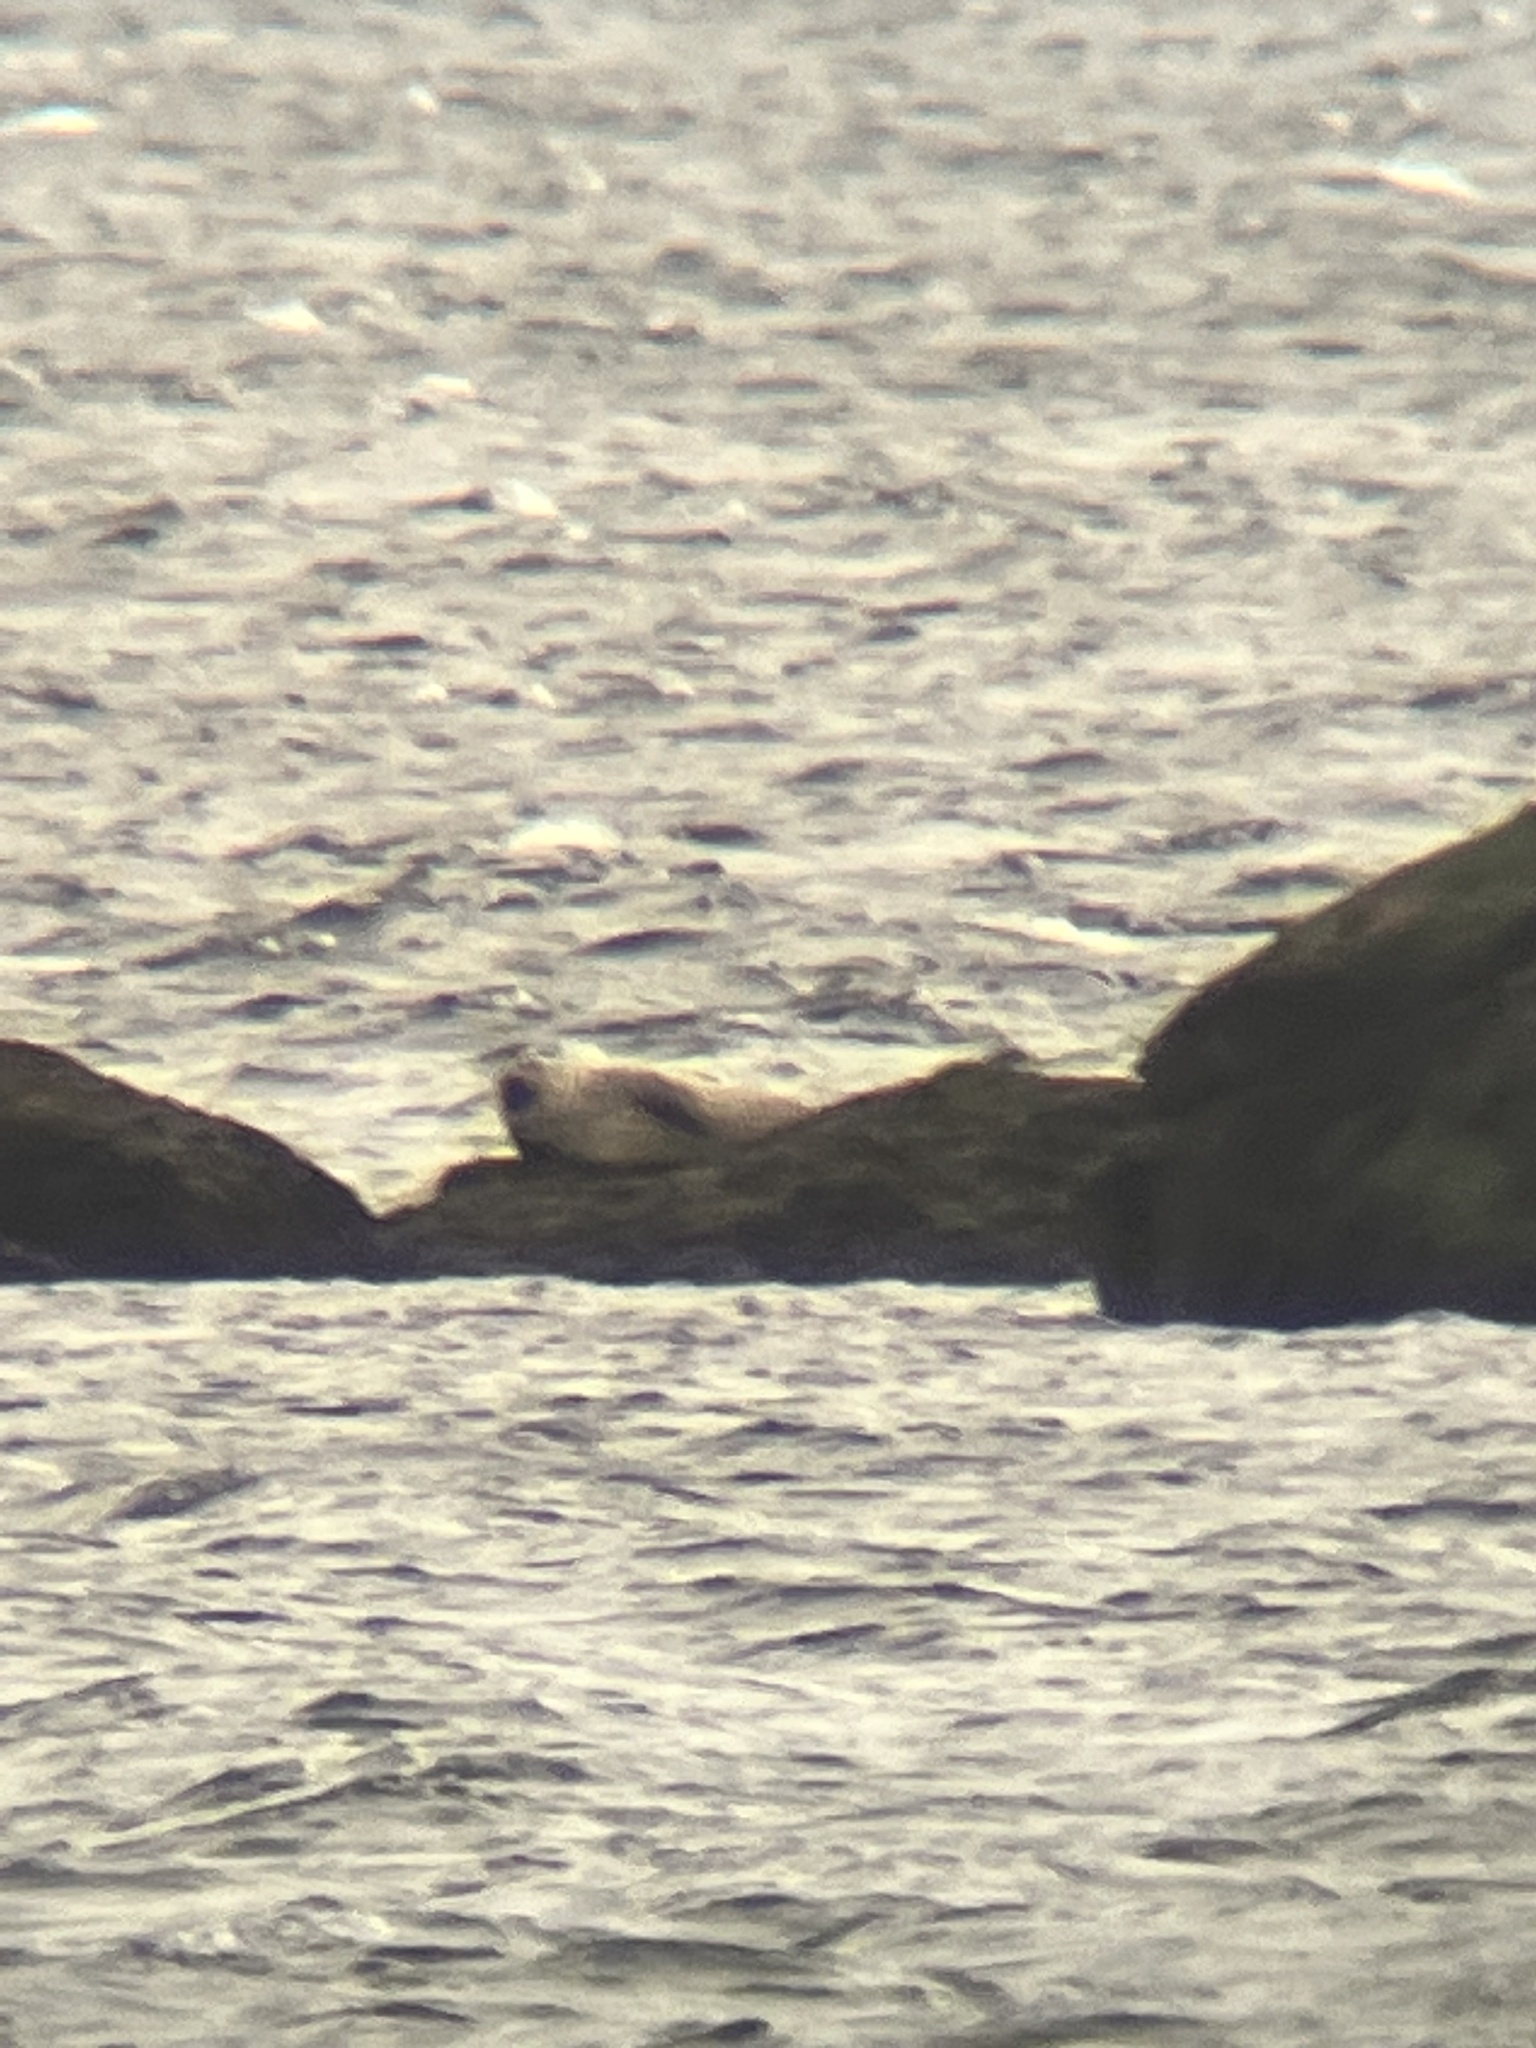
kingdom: Animalia
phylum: Chordata
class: Mammalia
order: Carnivora
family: Phocidae
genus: Phoca
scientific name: Phoca vitulina
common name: Harbor seal
